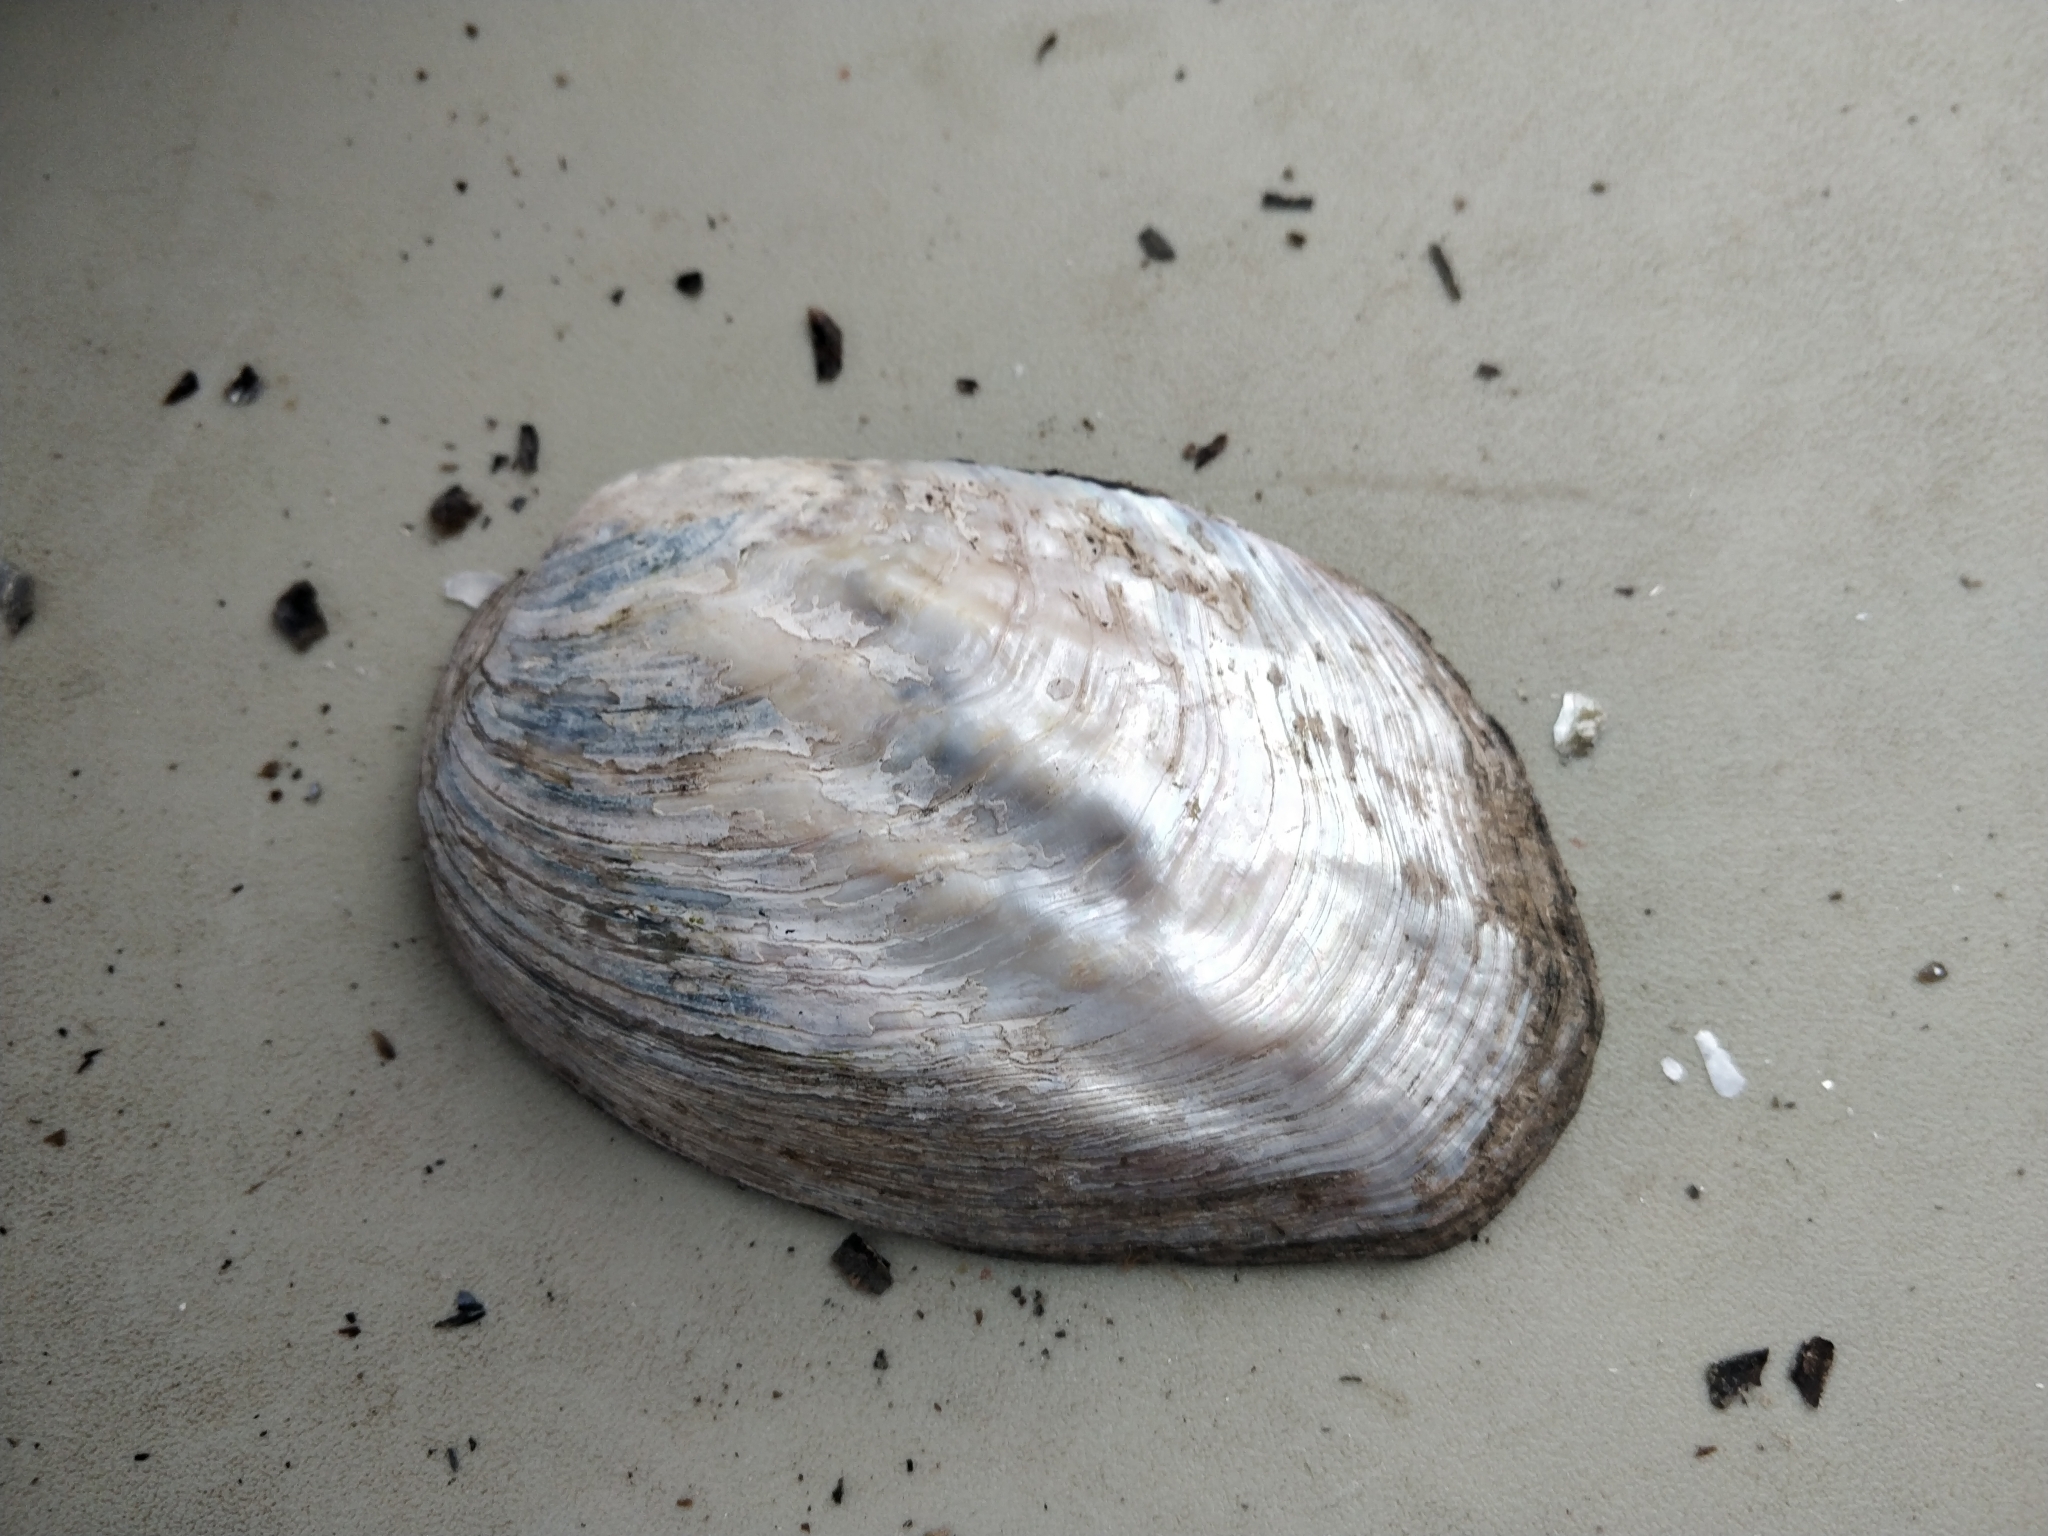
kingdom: Animalia
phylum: Mollusca
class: Bivalvia
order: Unionida
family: Unionidae
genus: Amblema
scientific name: Amblema plicata
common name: Threeridge
